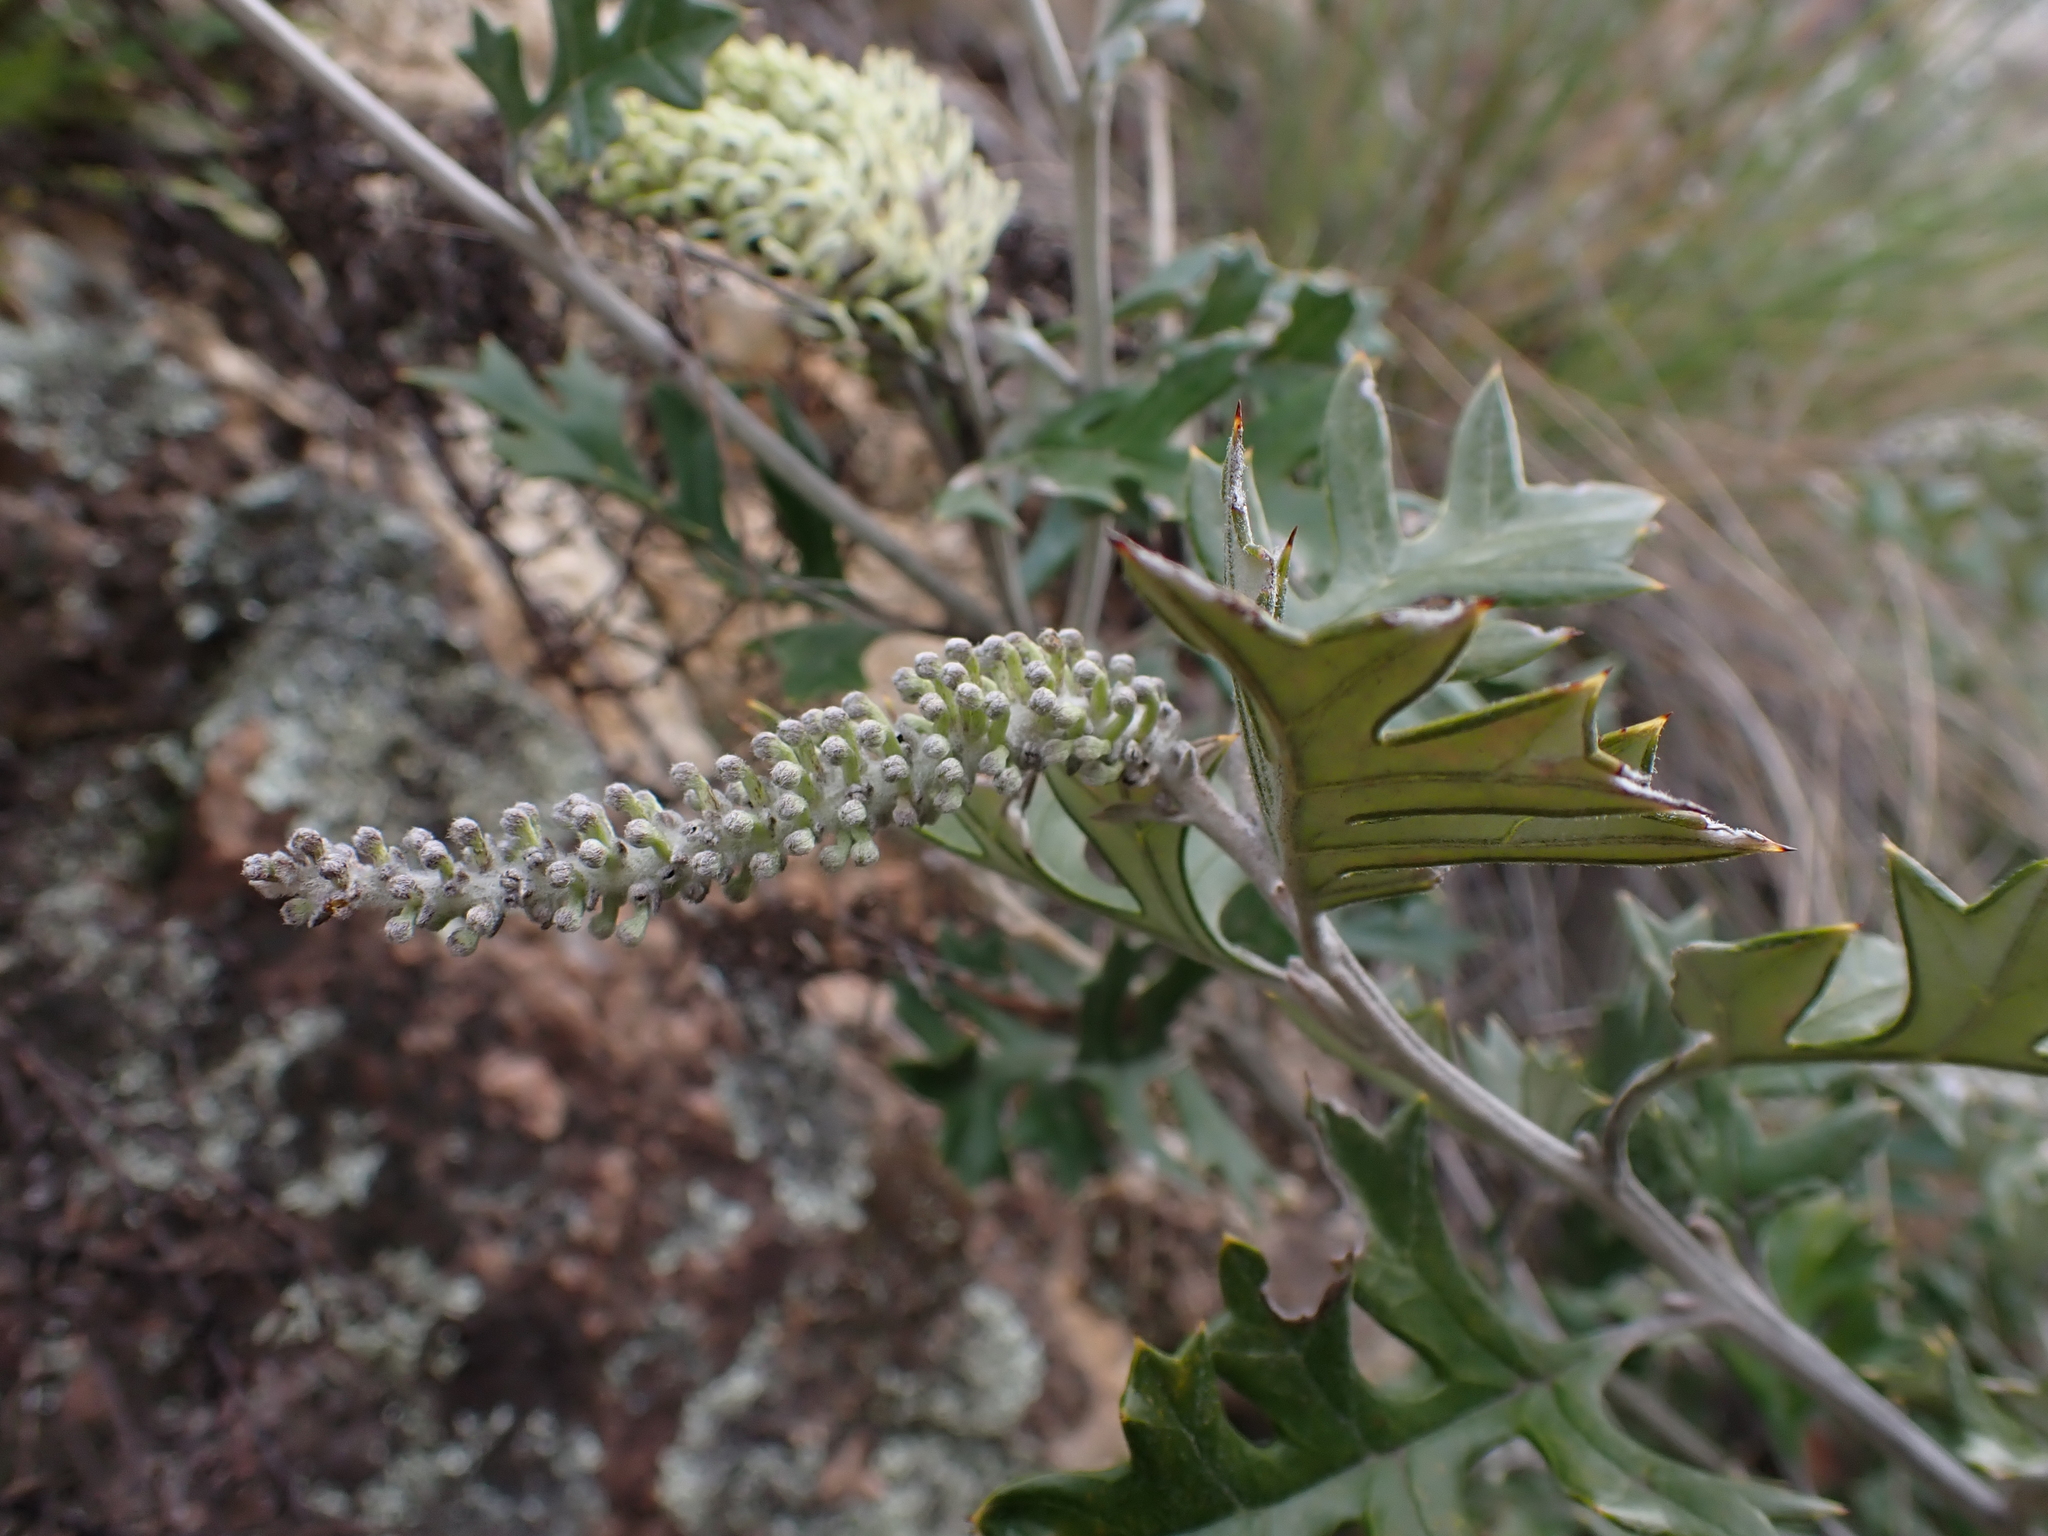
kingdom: Plantae
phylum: Tracheophyta
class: Magnoliopsida
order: Proteales
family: Proteaceae
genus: Grevillea
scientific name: Grevillea willisii
